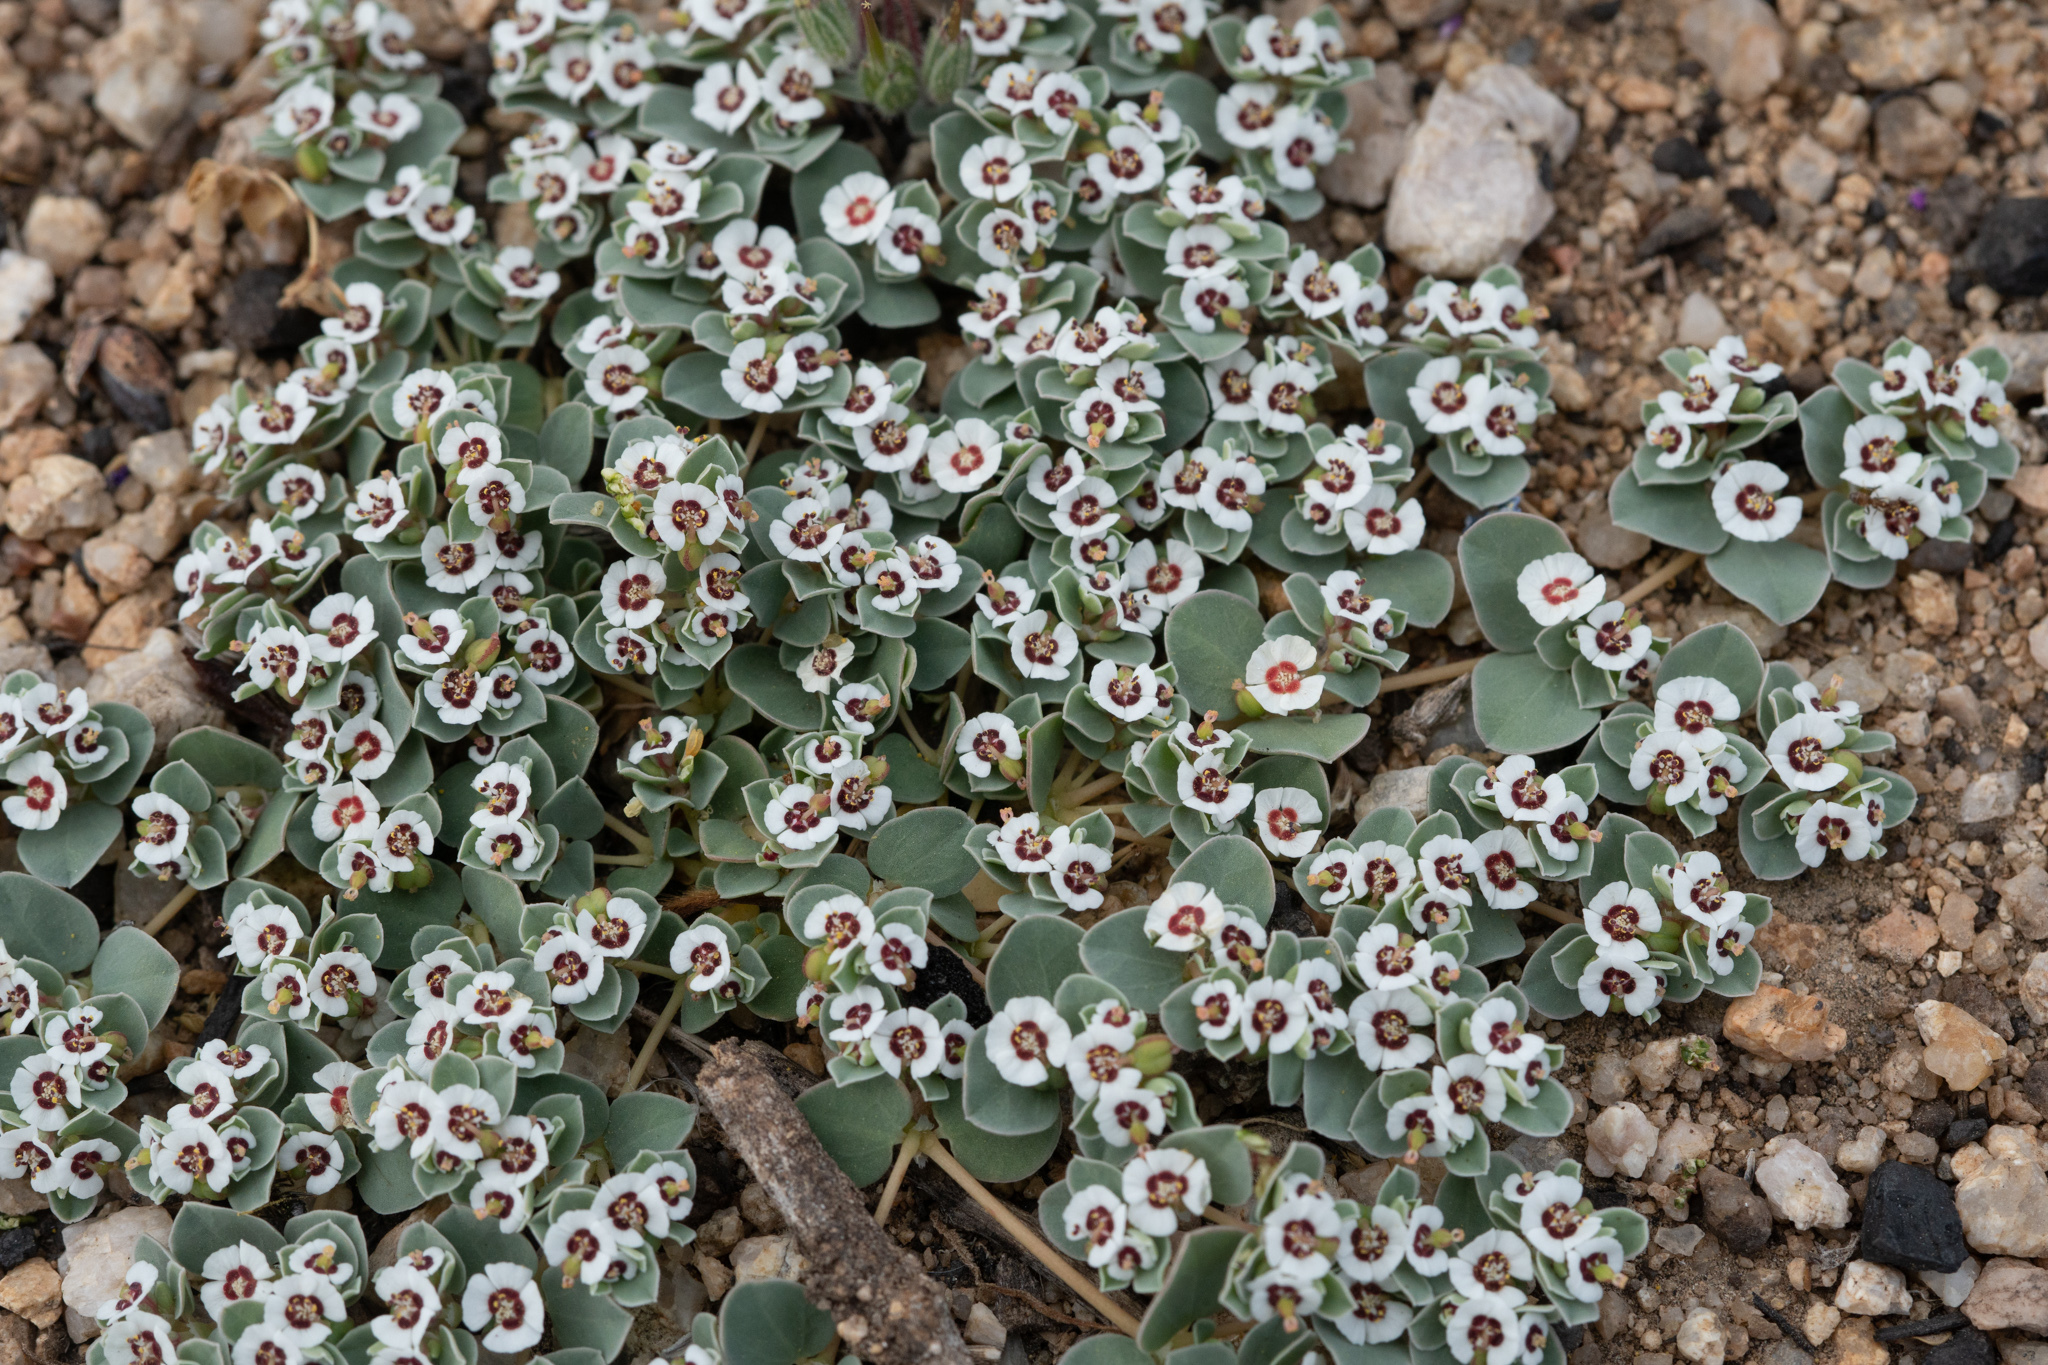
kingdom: Plantae
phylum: Tracheophyta
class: Magnoliopsida
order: Malpighiales
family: Euphorbiaceae
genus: Euphorbia
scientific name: Euphorbia albomarginata
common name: Whitemargin sandmat
